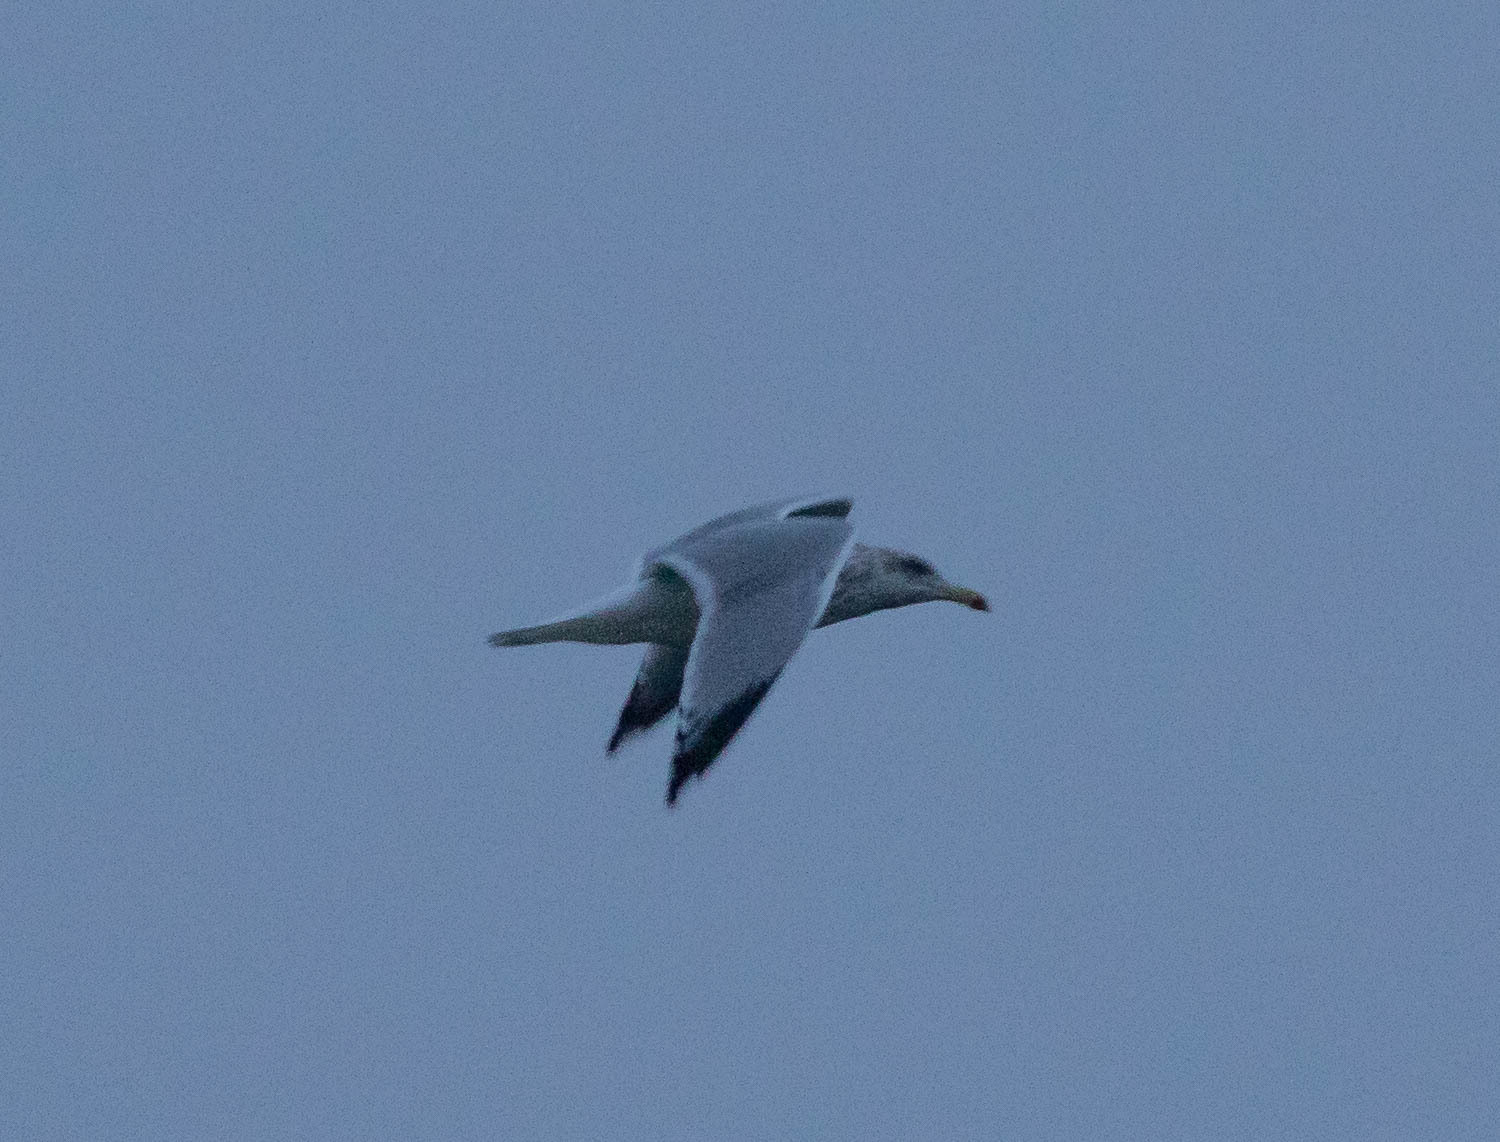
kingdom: Animalia
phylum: Chordata
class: Aves
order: Charadriiformes
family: Laridae
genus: Larus
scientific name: Larus argentatus
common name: Herring gull
